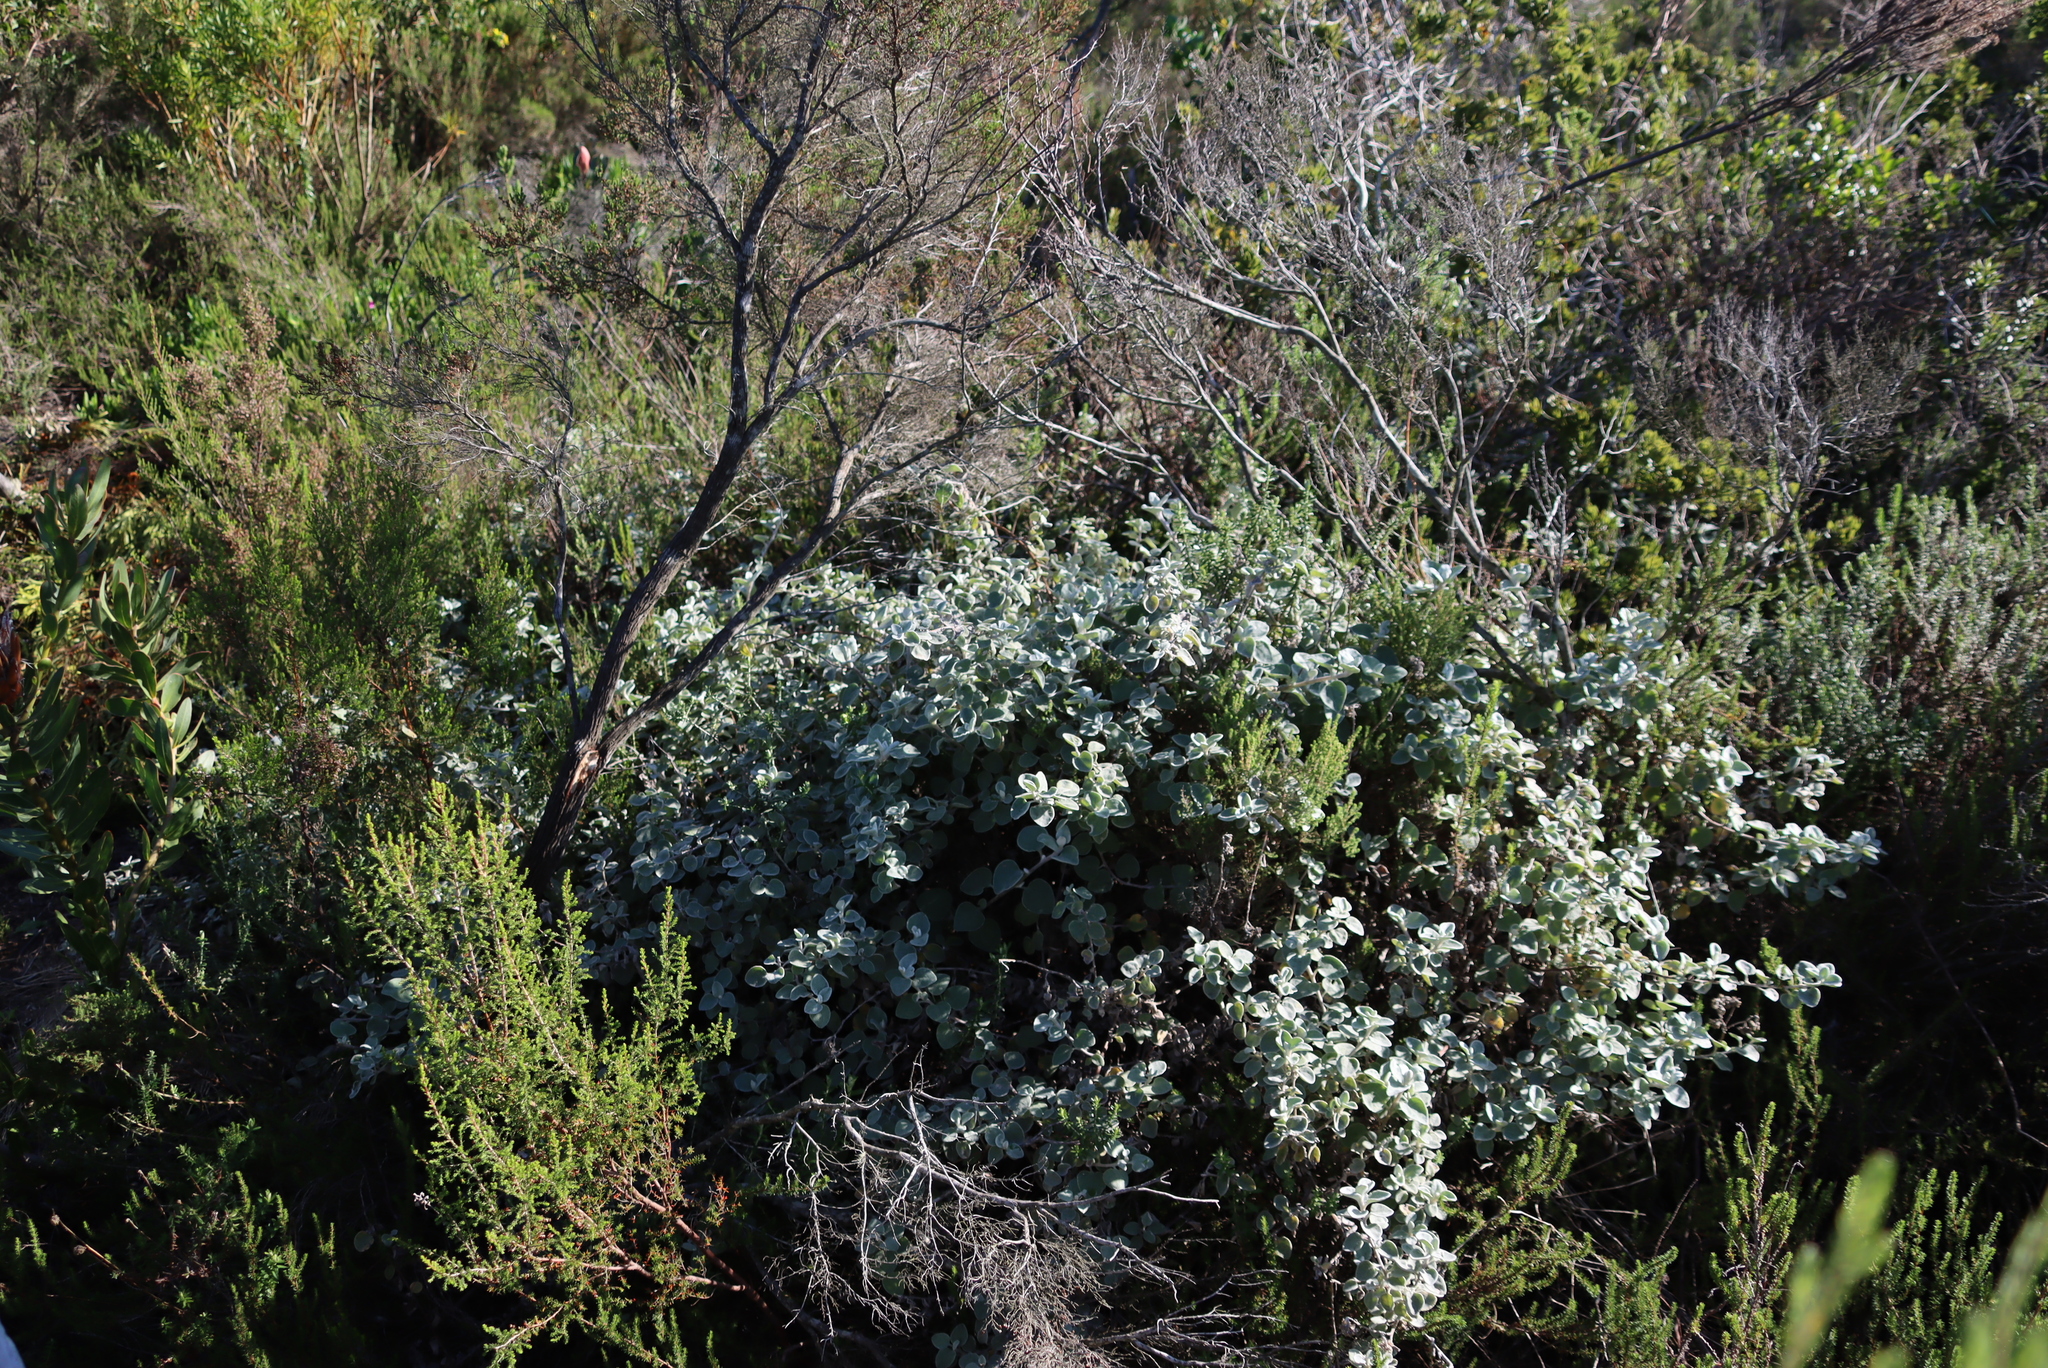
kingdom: Plantae
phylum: Tracheophyta
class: Magnoliopsida
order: Asterales
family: Asteraceae
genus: Helichrysum
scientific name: Helichrysum petiolare
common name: Licorice-plant
